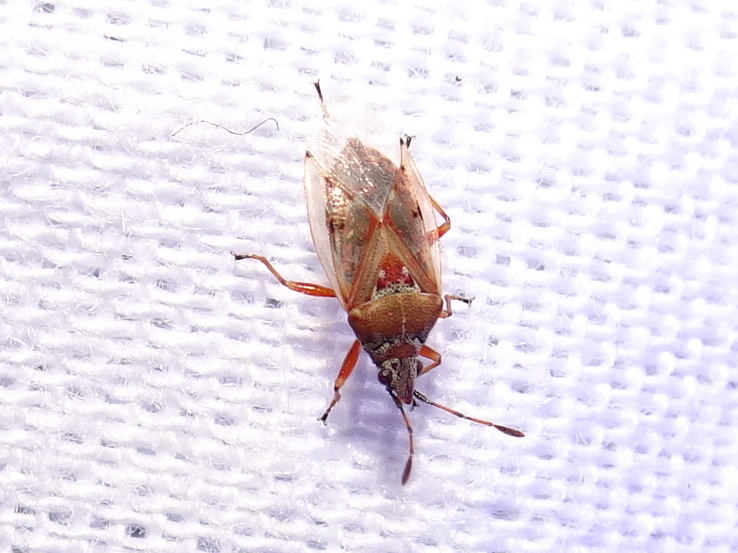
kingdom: Animalia
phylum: Arthropoda
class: Insecta
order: Hemiptera
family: Lygaeidae
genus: Kleidocerys
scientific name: Kleidocerys resedae
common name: Birch catkin bug
